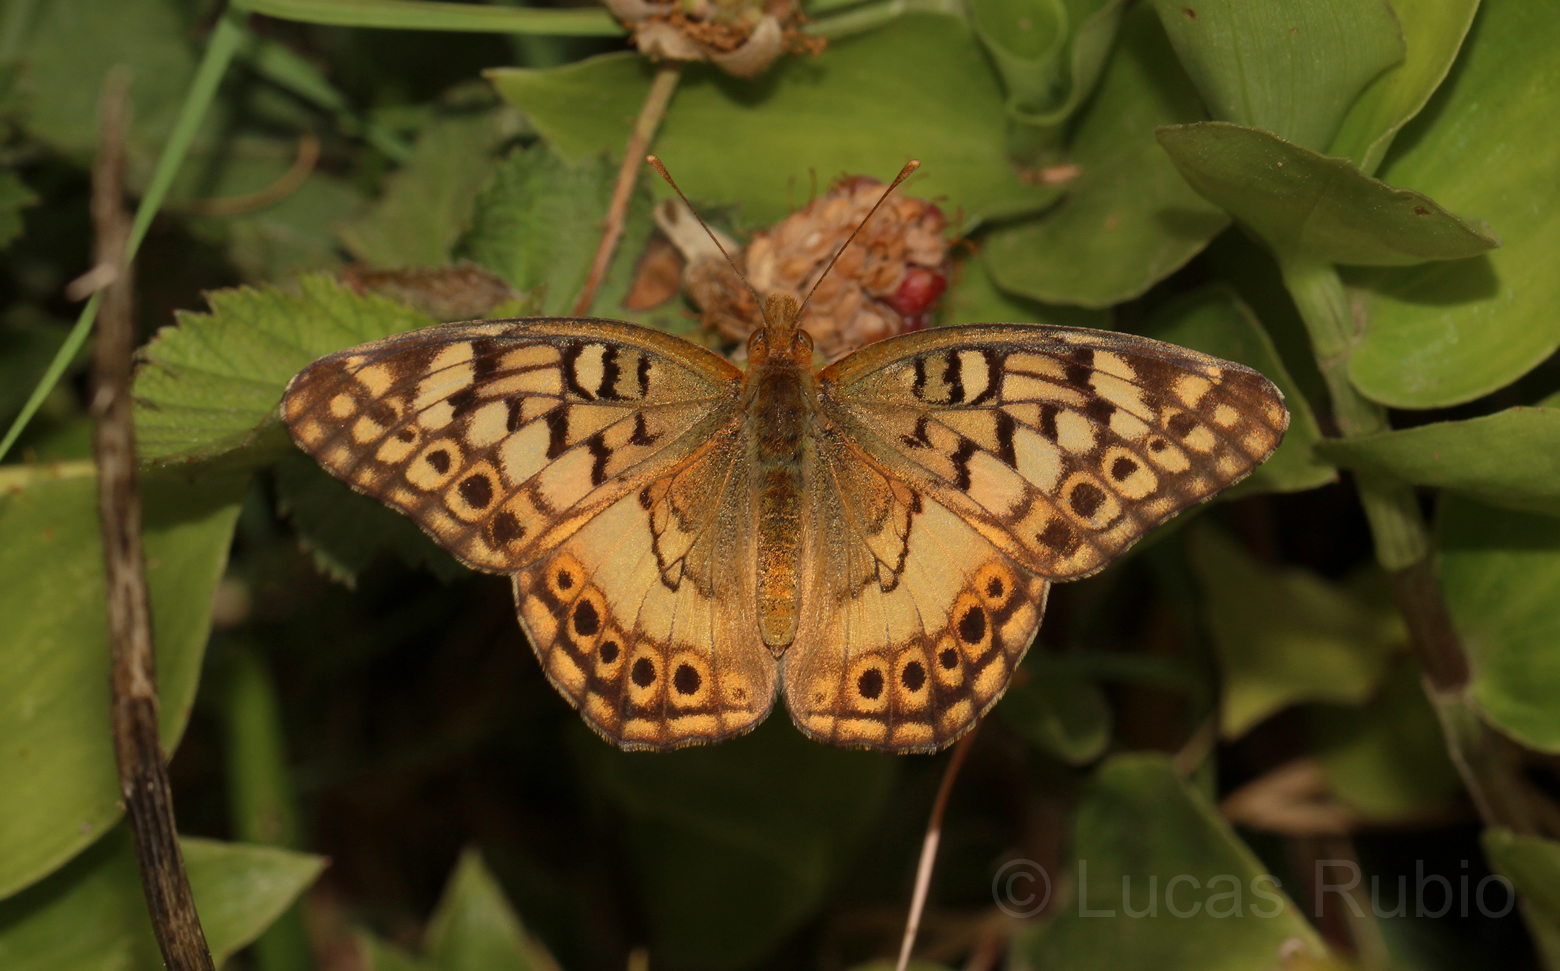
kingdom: Animalia
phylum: Arthropoda
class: Insecta
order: Lepidoptera
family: Nymphalidae
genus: Euptoieta
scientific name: Euptoieta hortensia
